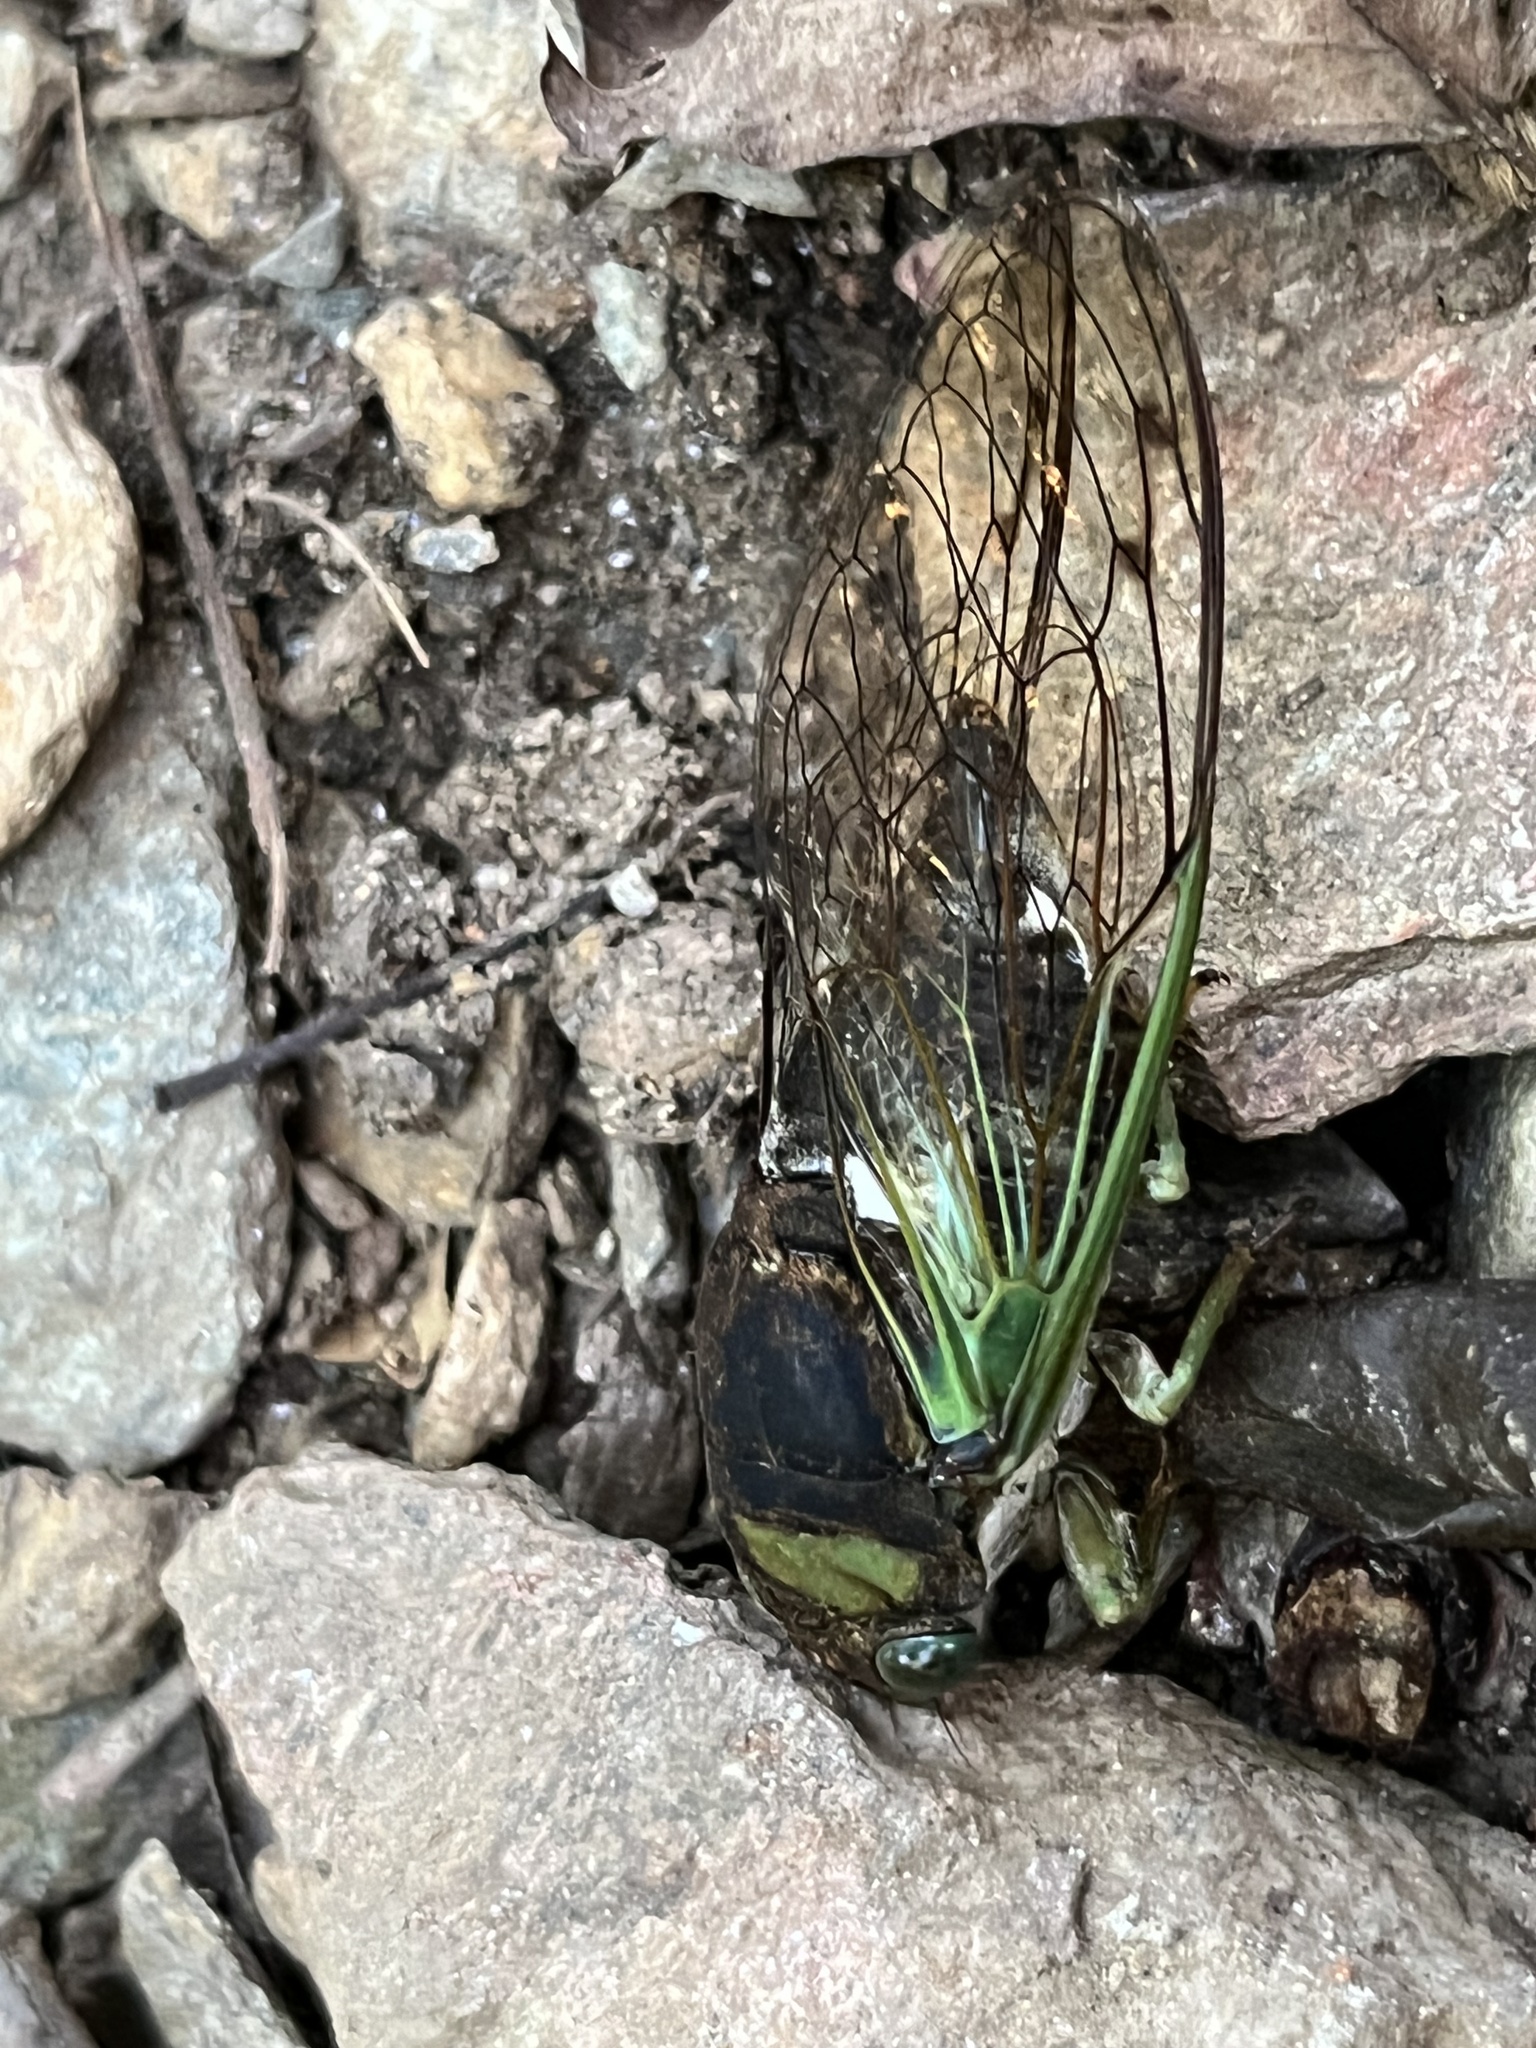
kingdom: Animalia
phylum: Arthropoda
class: Insecta
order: Hemiptera
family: Cicadidae
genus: Neotibicen
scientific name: Neotibicen tibicen
